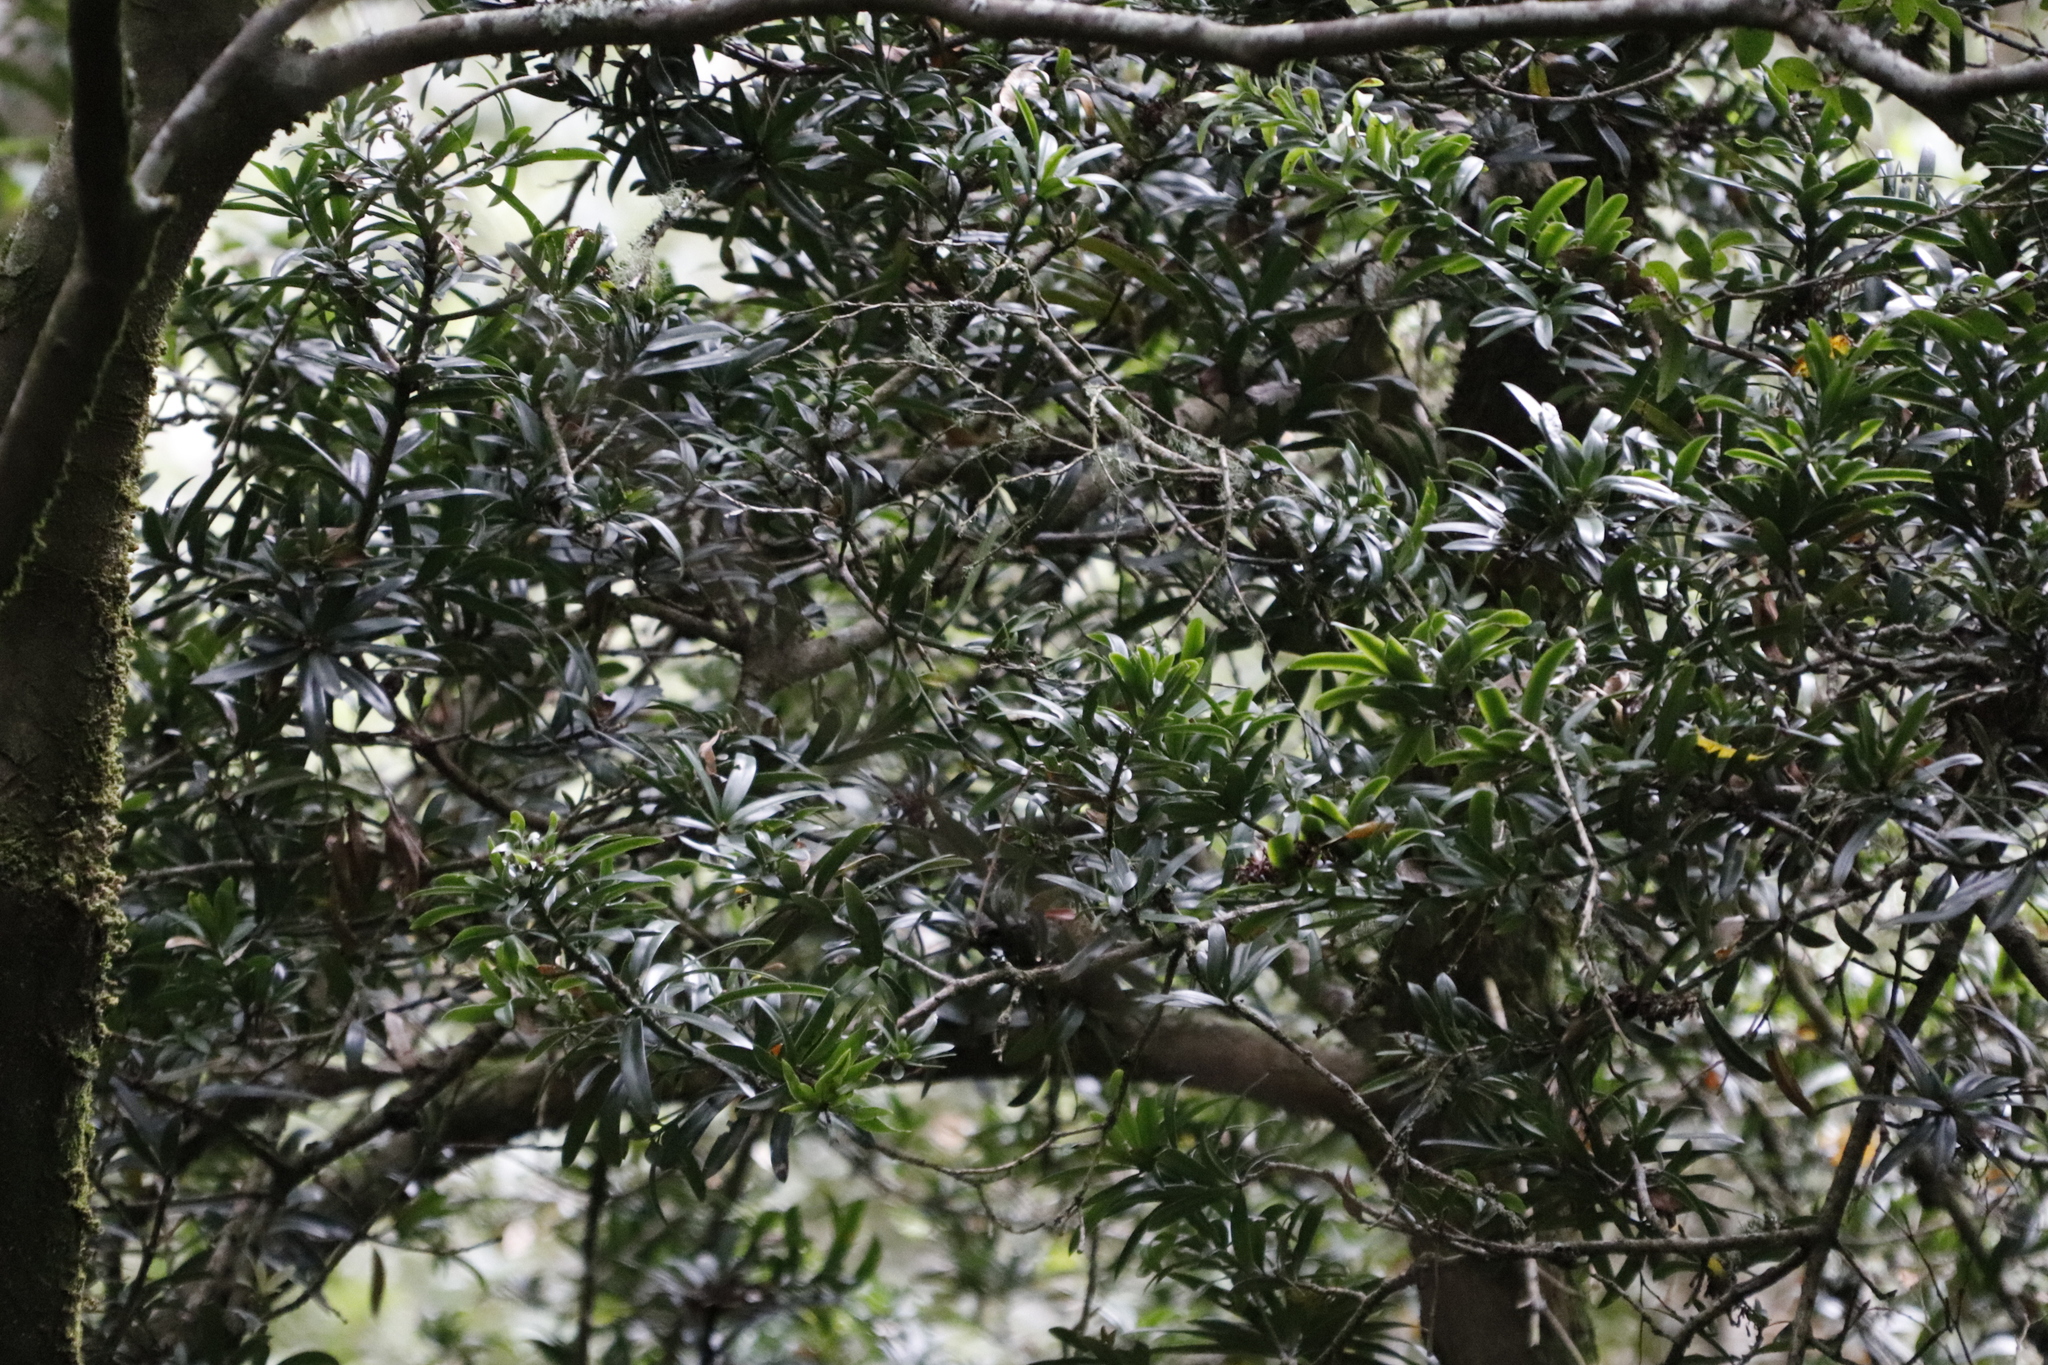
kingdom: Plantae
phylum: Tracheophyta
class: Pinopsida
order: Pinales
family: Podocarpaceae
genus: Podocarpus
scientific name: Podocarpus latifolius
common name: True yellowwood
